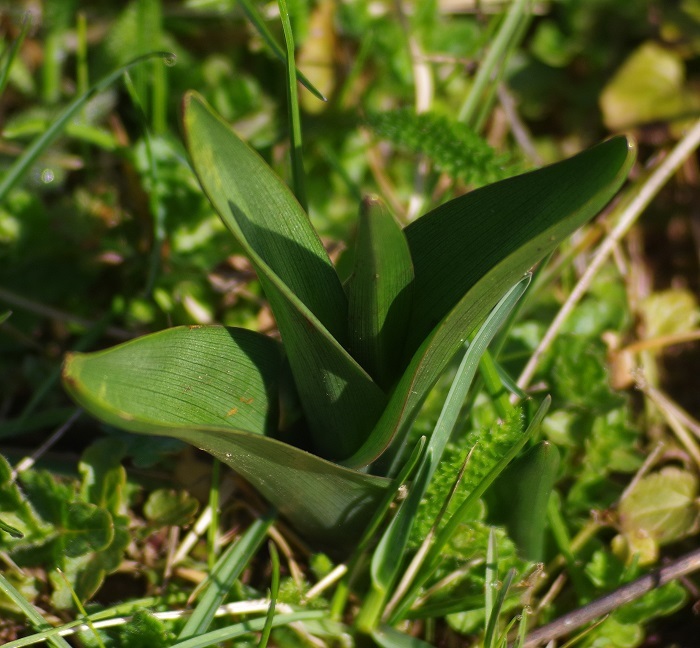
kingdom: Plantae
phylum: Tracheophyta
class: Liliopsida
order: Liliales
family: Colchicaceae
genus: Colchicum
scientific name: Colchicum autumnale
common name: Autumn crocus
